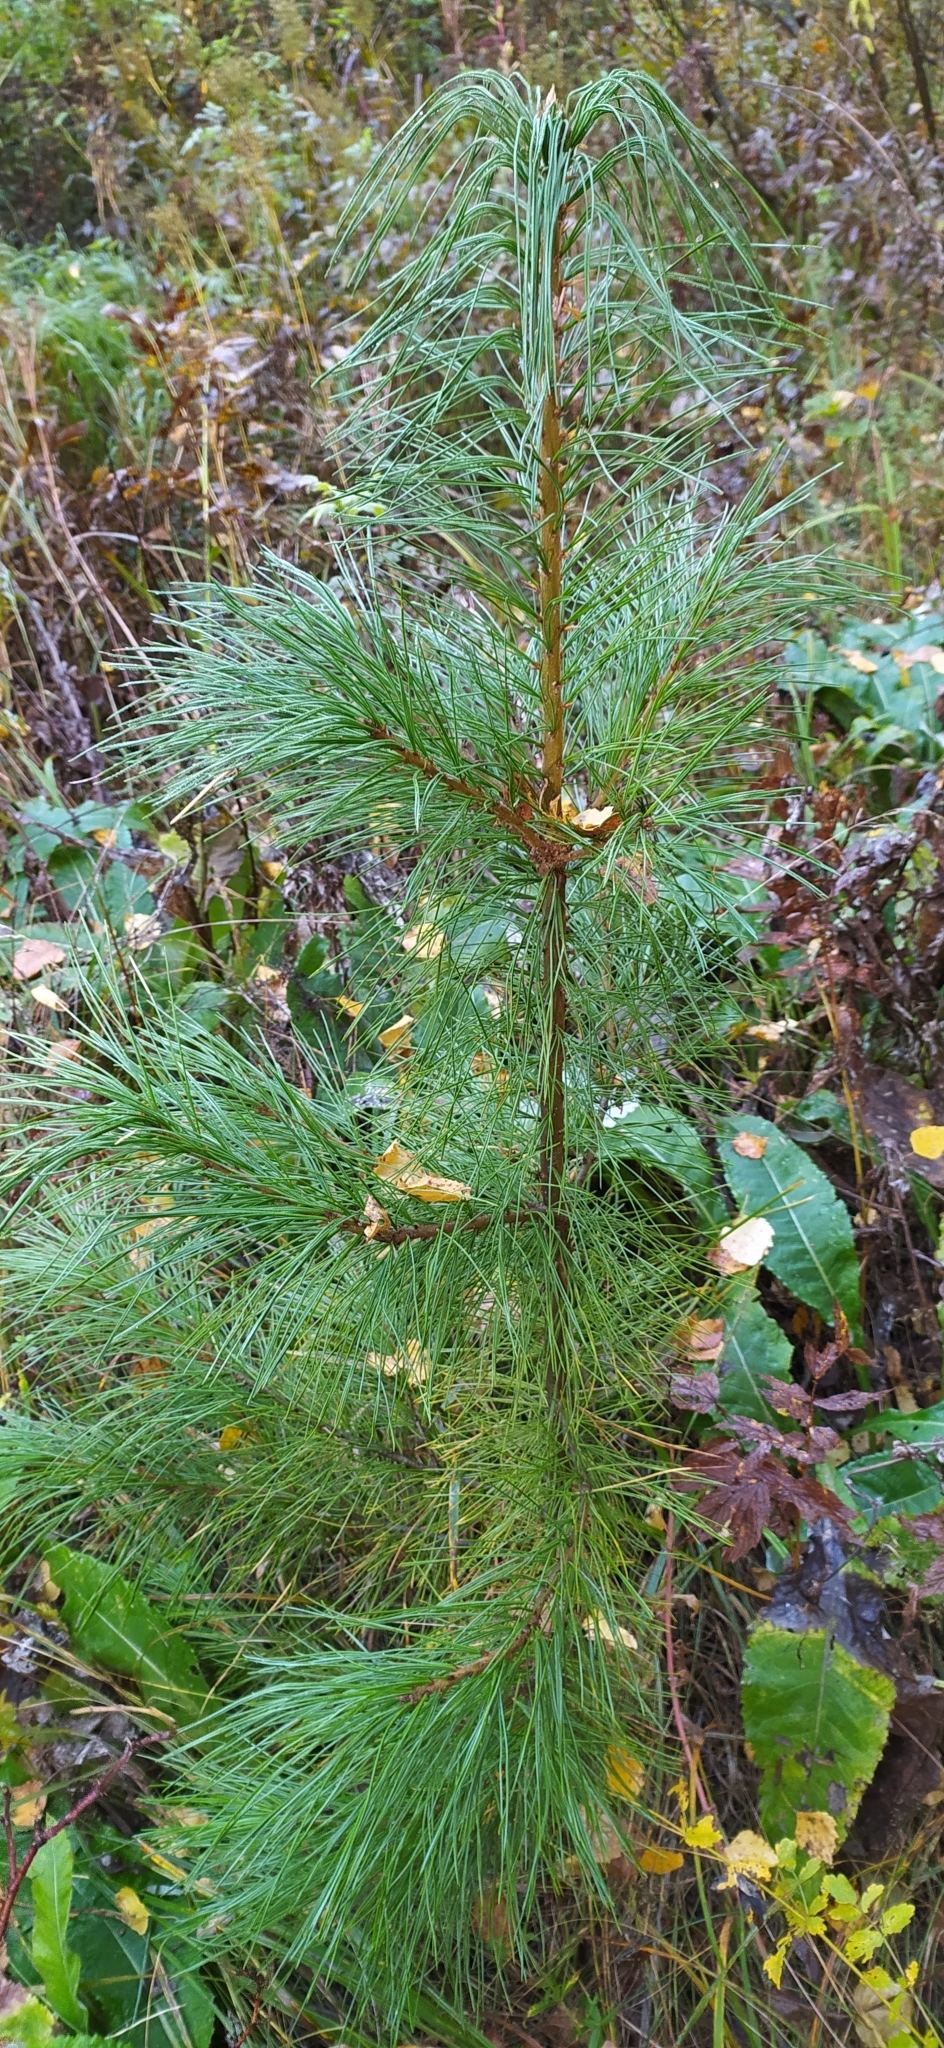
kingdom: Plantae
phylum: Tracheophyta
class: Pinopsida
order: Pinales
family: Pinaceae
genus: Pinus
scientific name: Pinus sibirica
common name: Siberian pine
